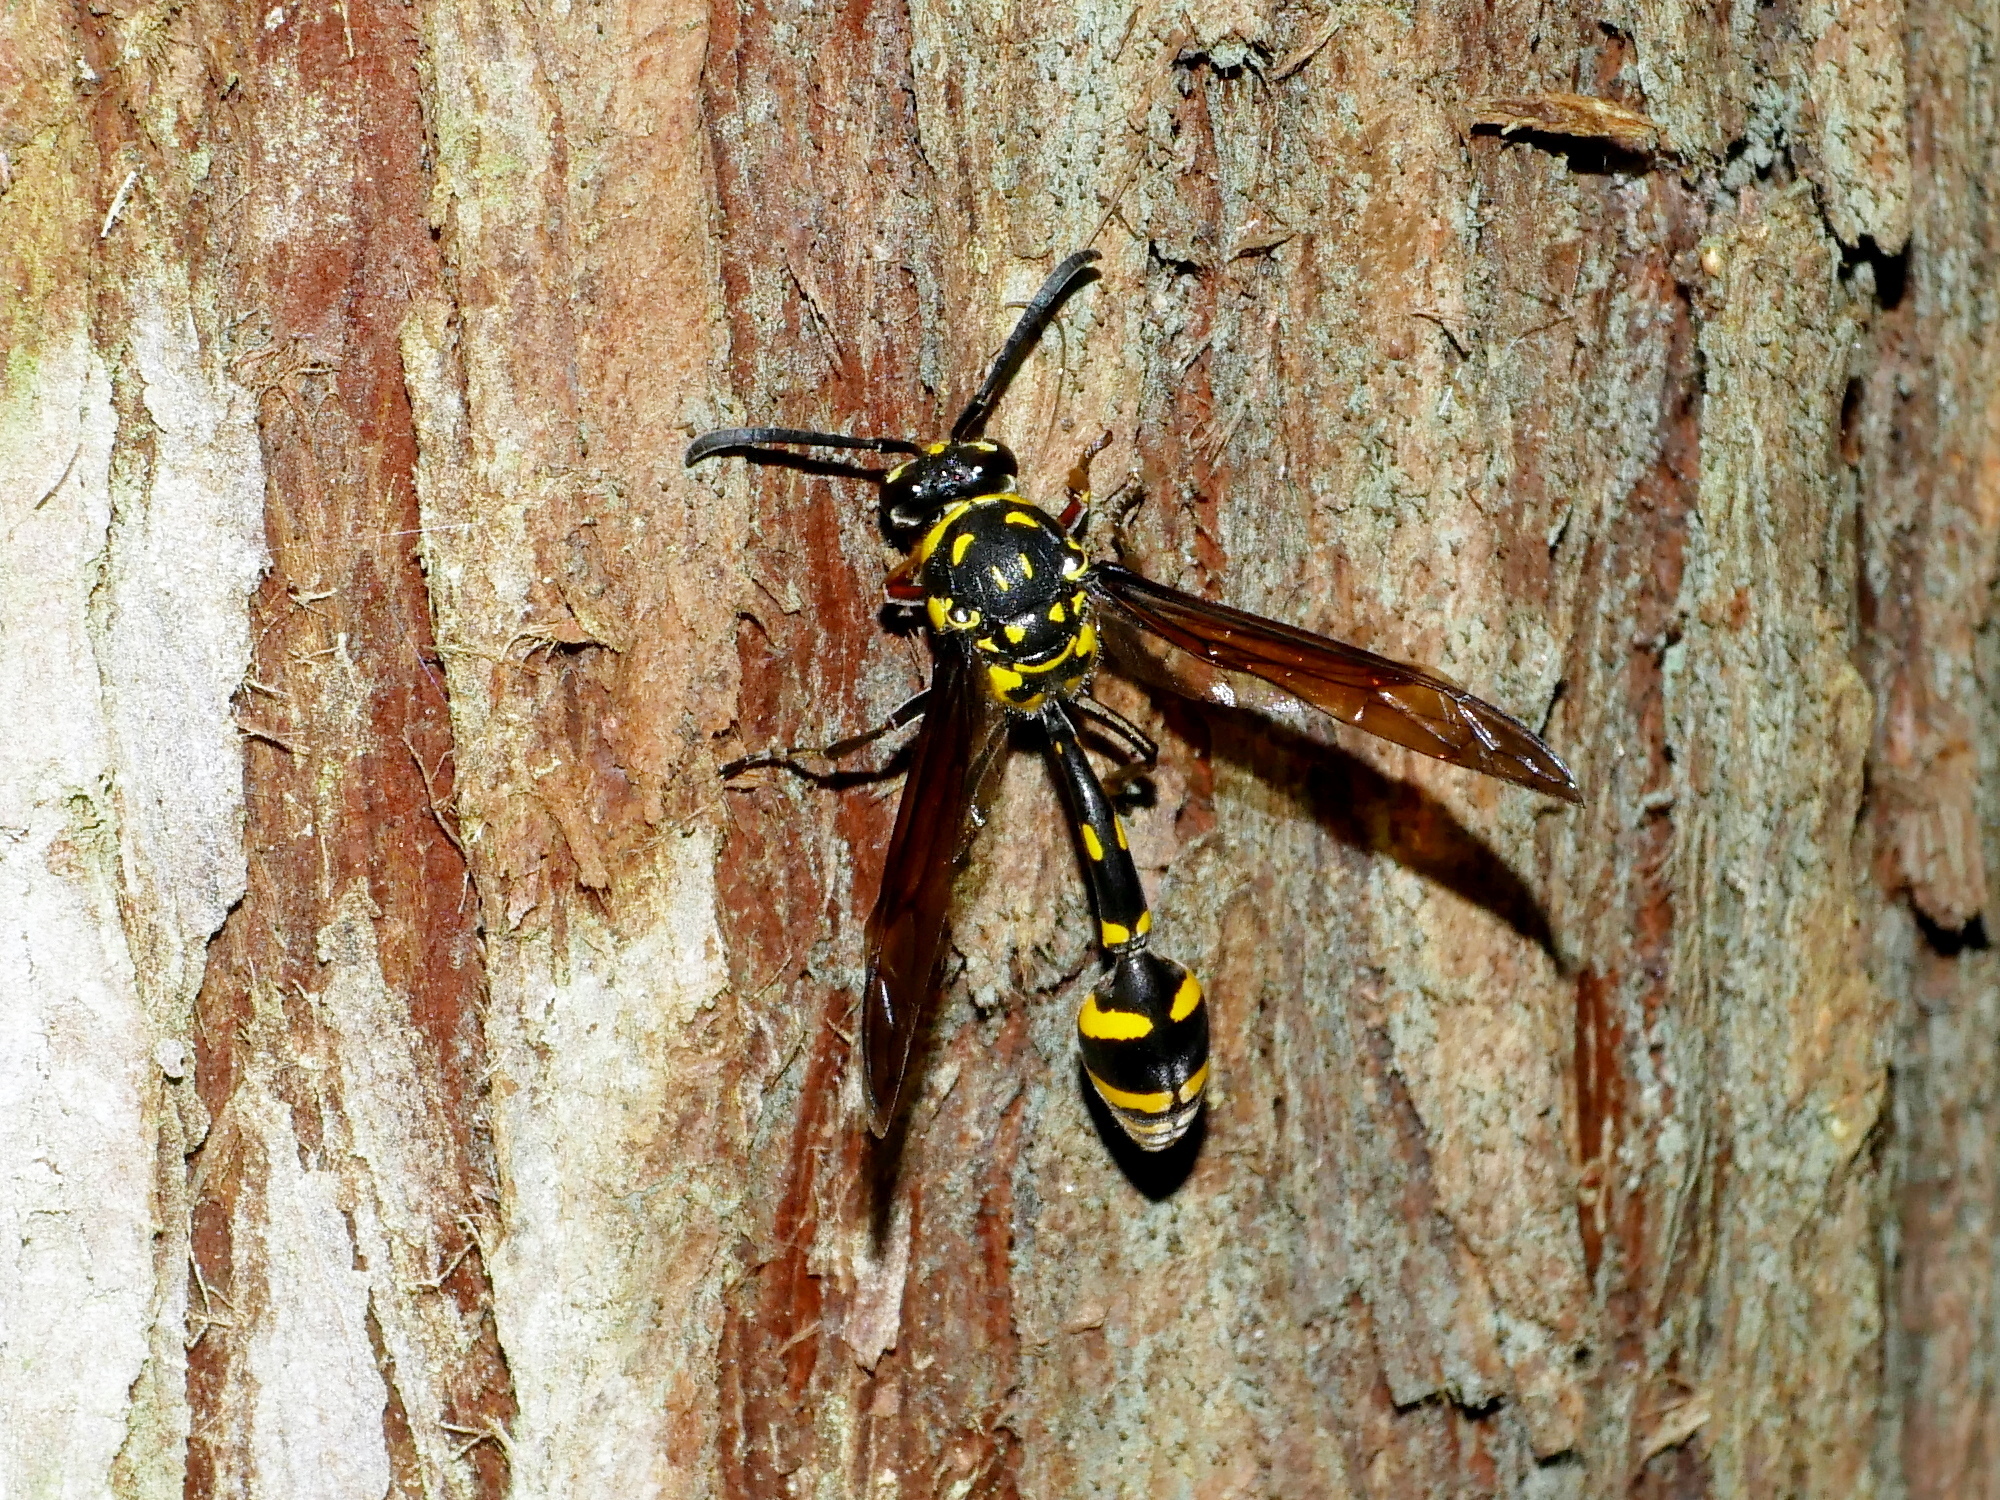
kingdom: Animalia
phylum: Arthropoda
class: Insecta
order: Hymenoptera
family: Eumenidae
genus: Phimenes
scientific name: Phimenes flavopictus
